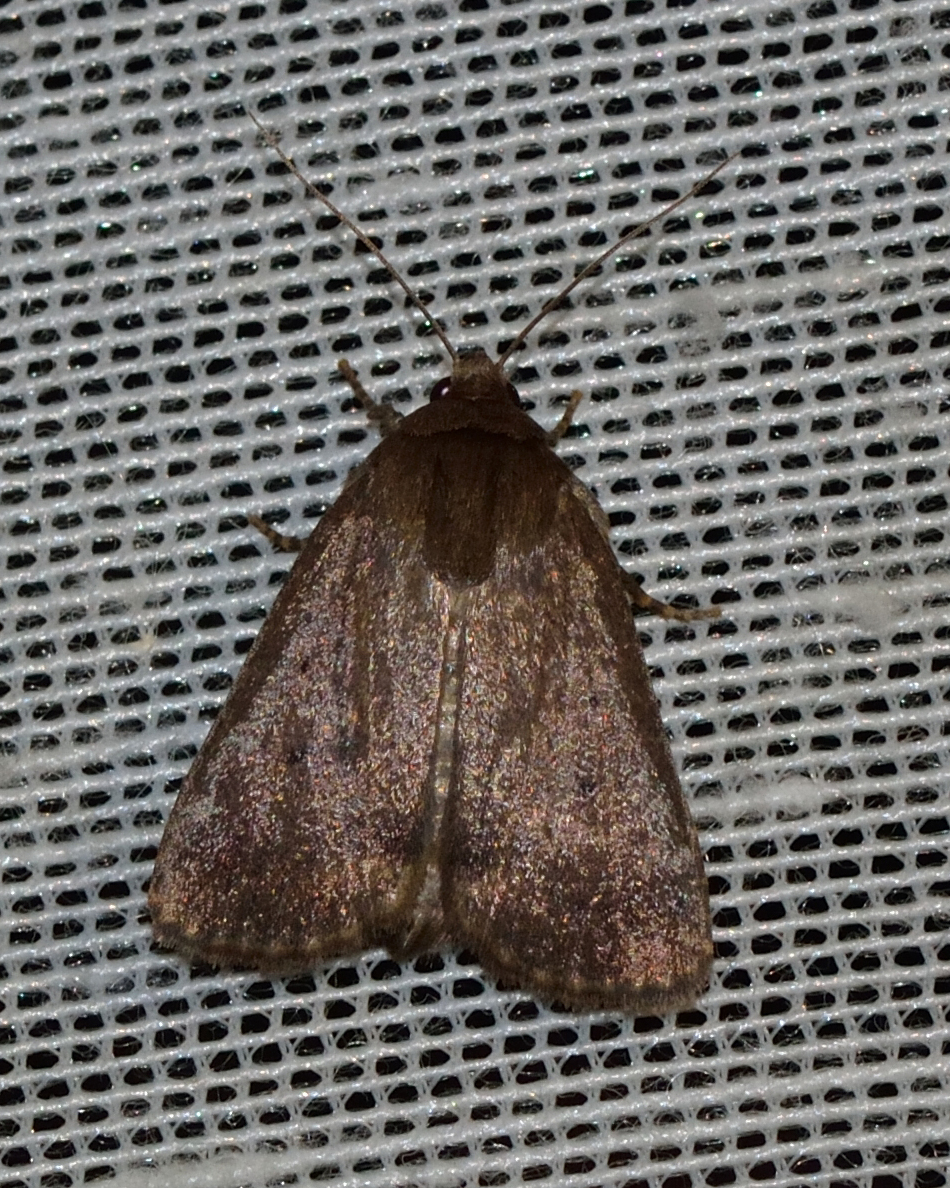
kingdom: Animalia
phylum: Arthropoda
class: Insecta
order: Lepidoptera
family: Noctuidae
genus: Amphipyra
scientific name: Amphipyra tragopoginis
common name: Mouse moth
